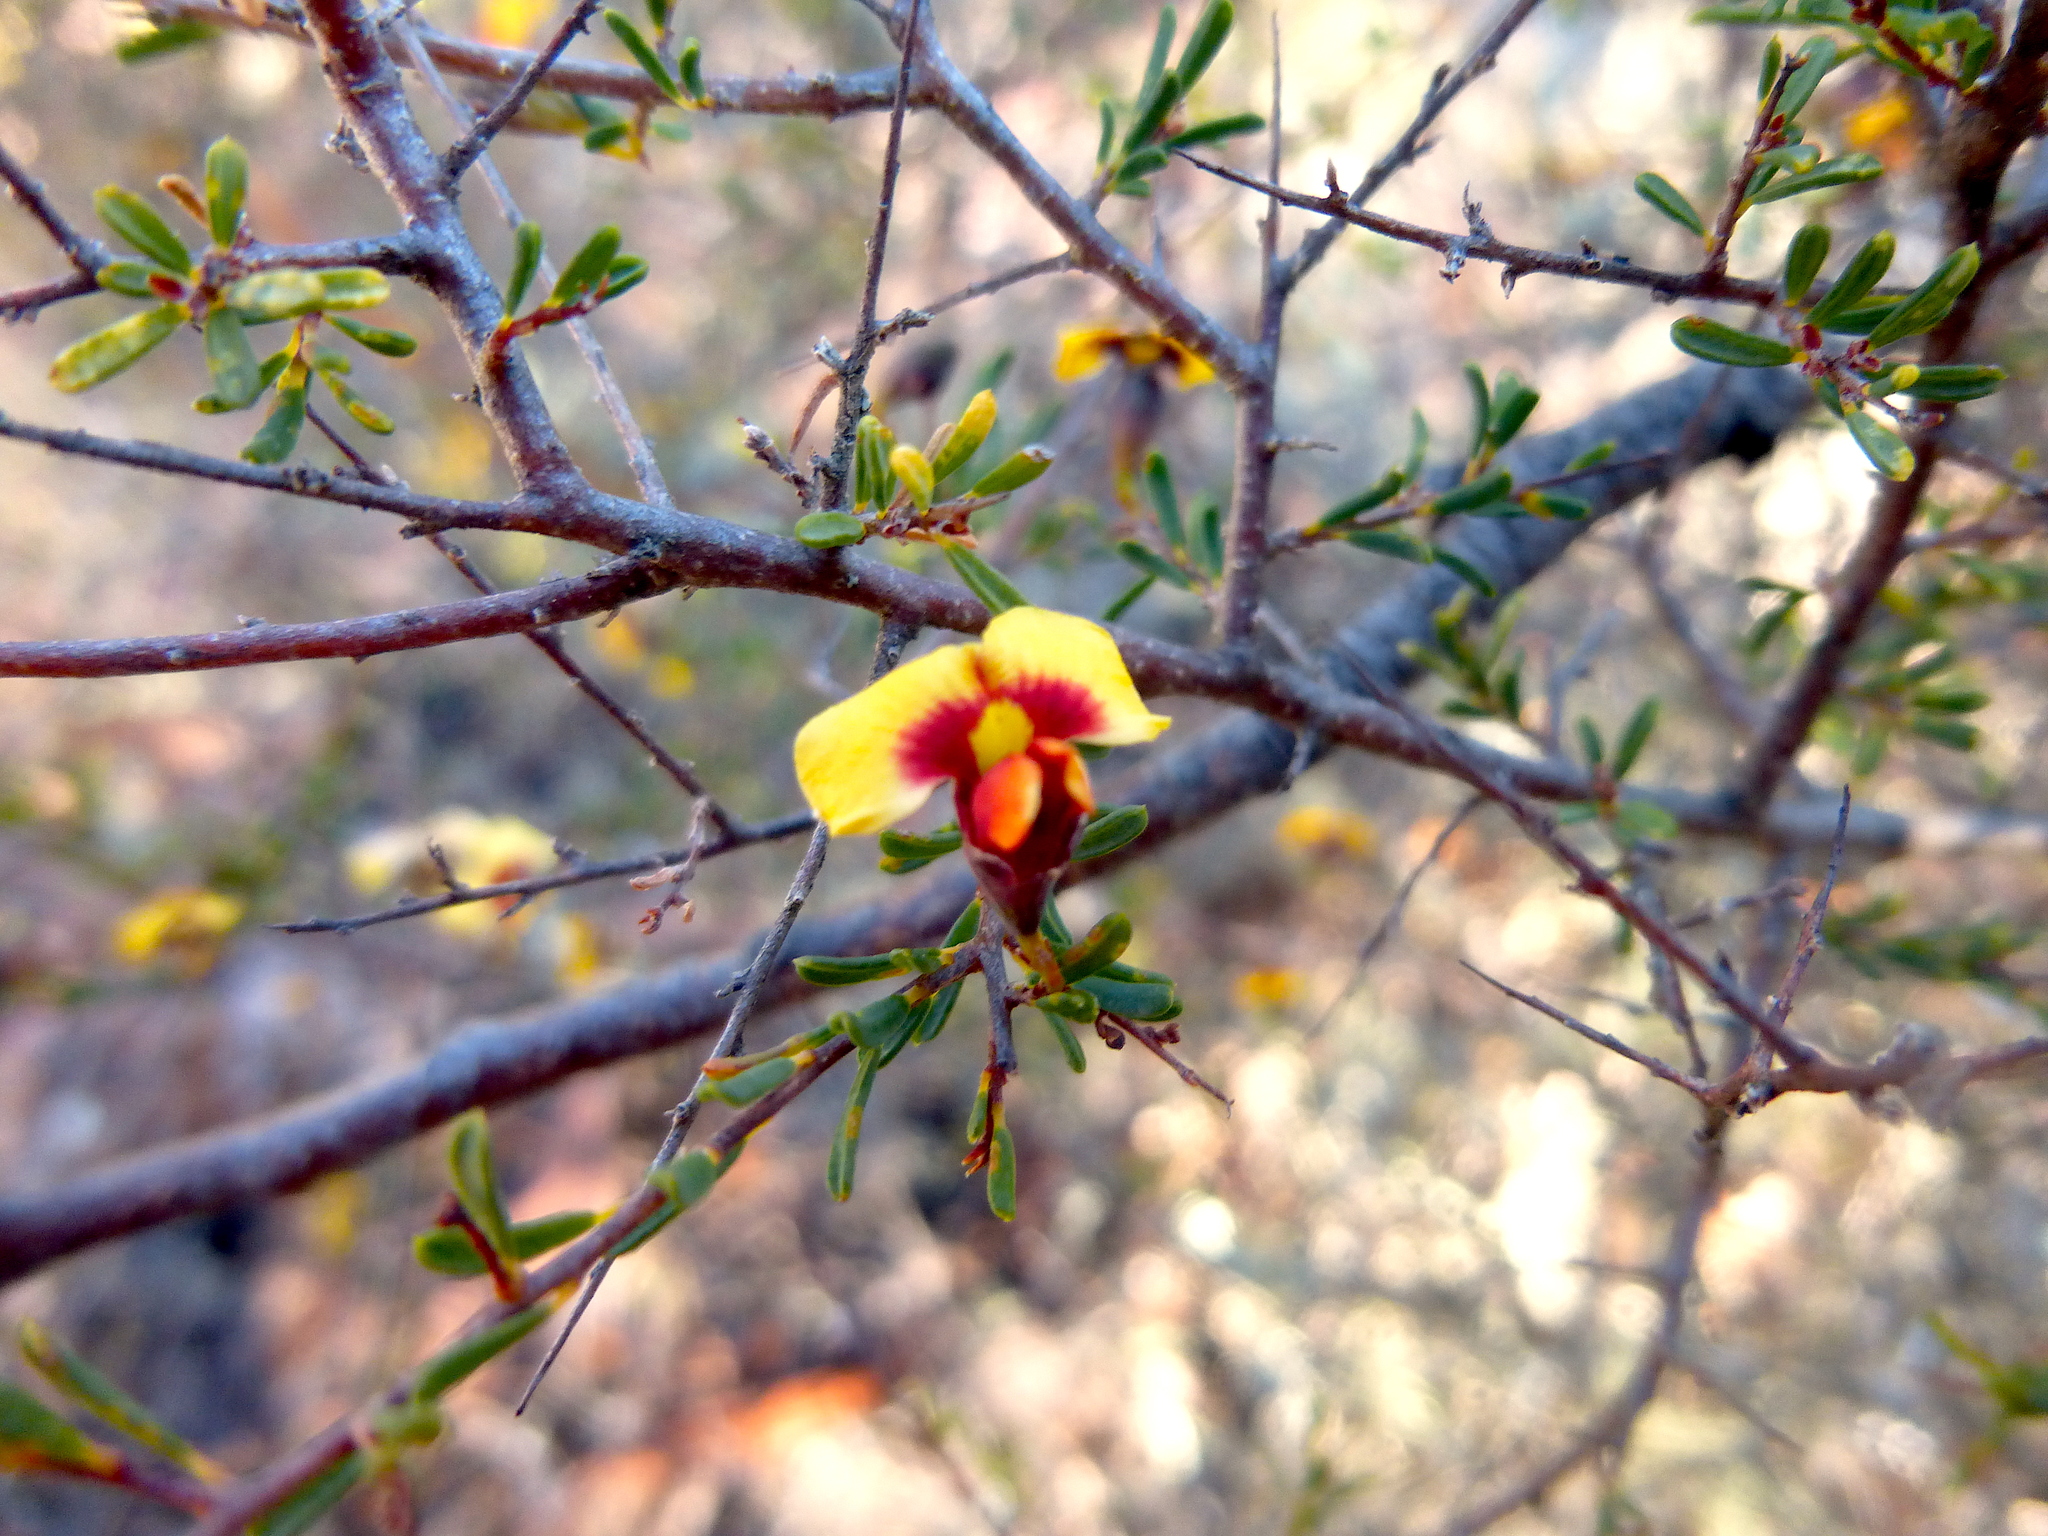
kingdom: Plantae
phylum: Tracheophyta
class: Magnoliopsida
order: Fabales
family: Fabaceae
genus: Dillwynia
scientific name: Dillwynia ramosissima
